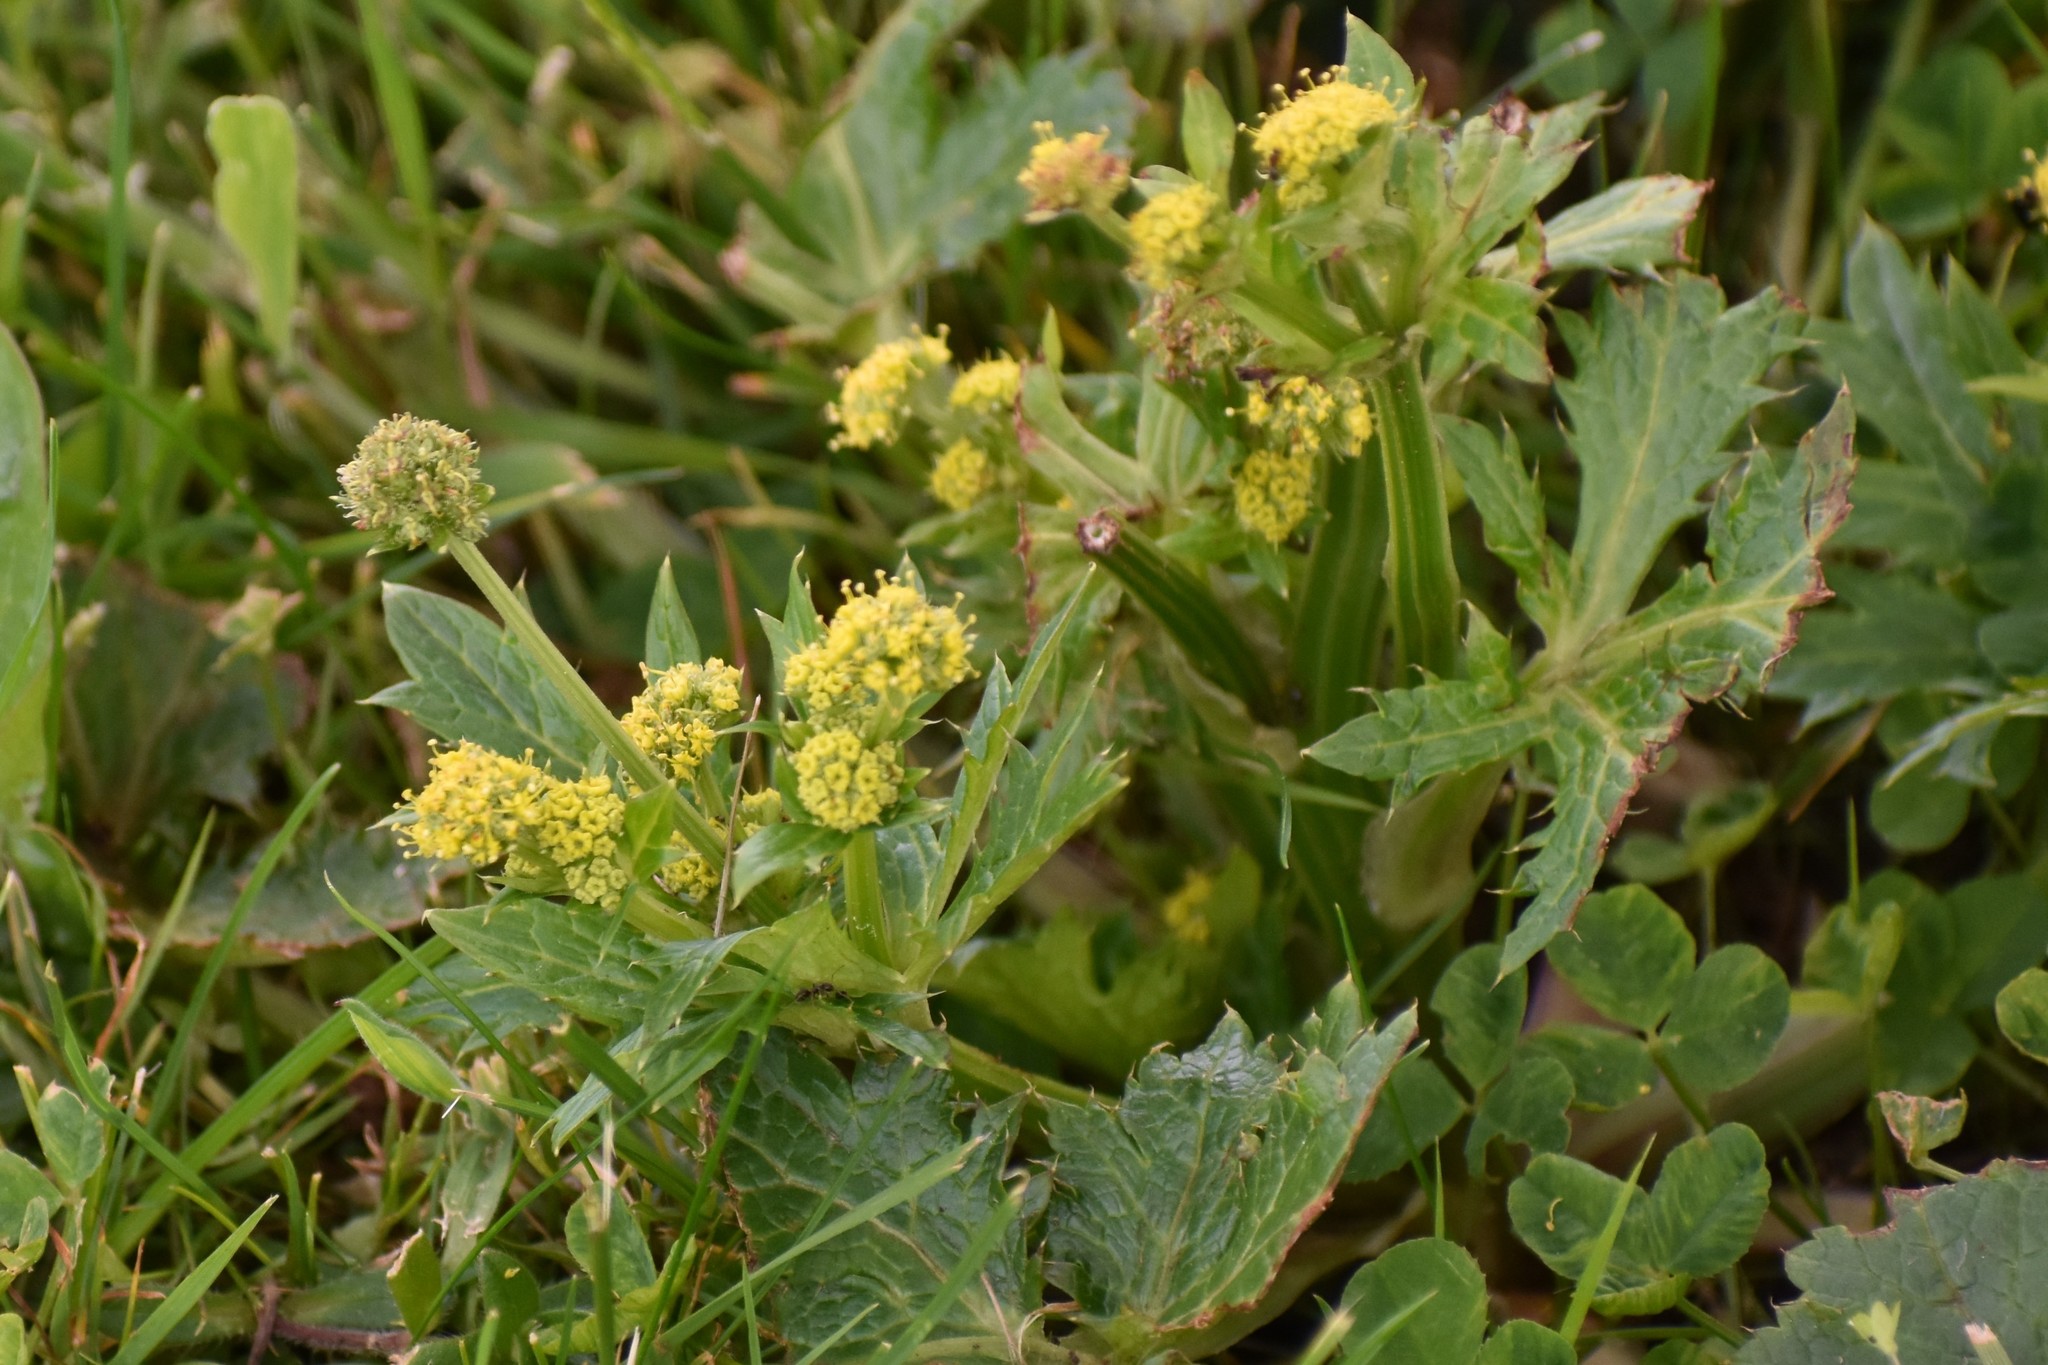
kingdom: Plantae
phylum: Tracheophyta
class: Magnoliopsida
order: Apiales
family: Apiaceae
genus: Sanicula
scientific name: Sanicula crassicaulis
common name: Western snakeroot
